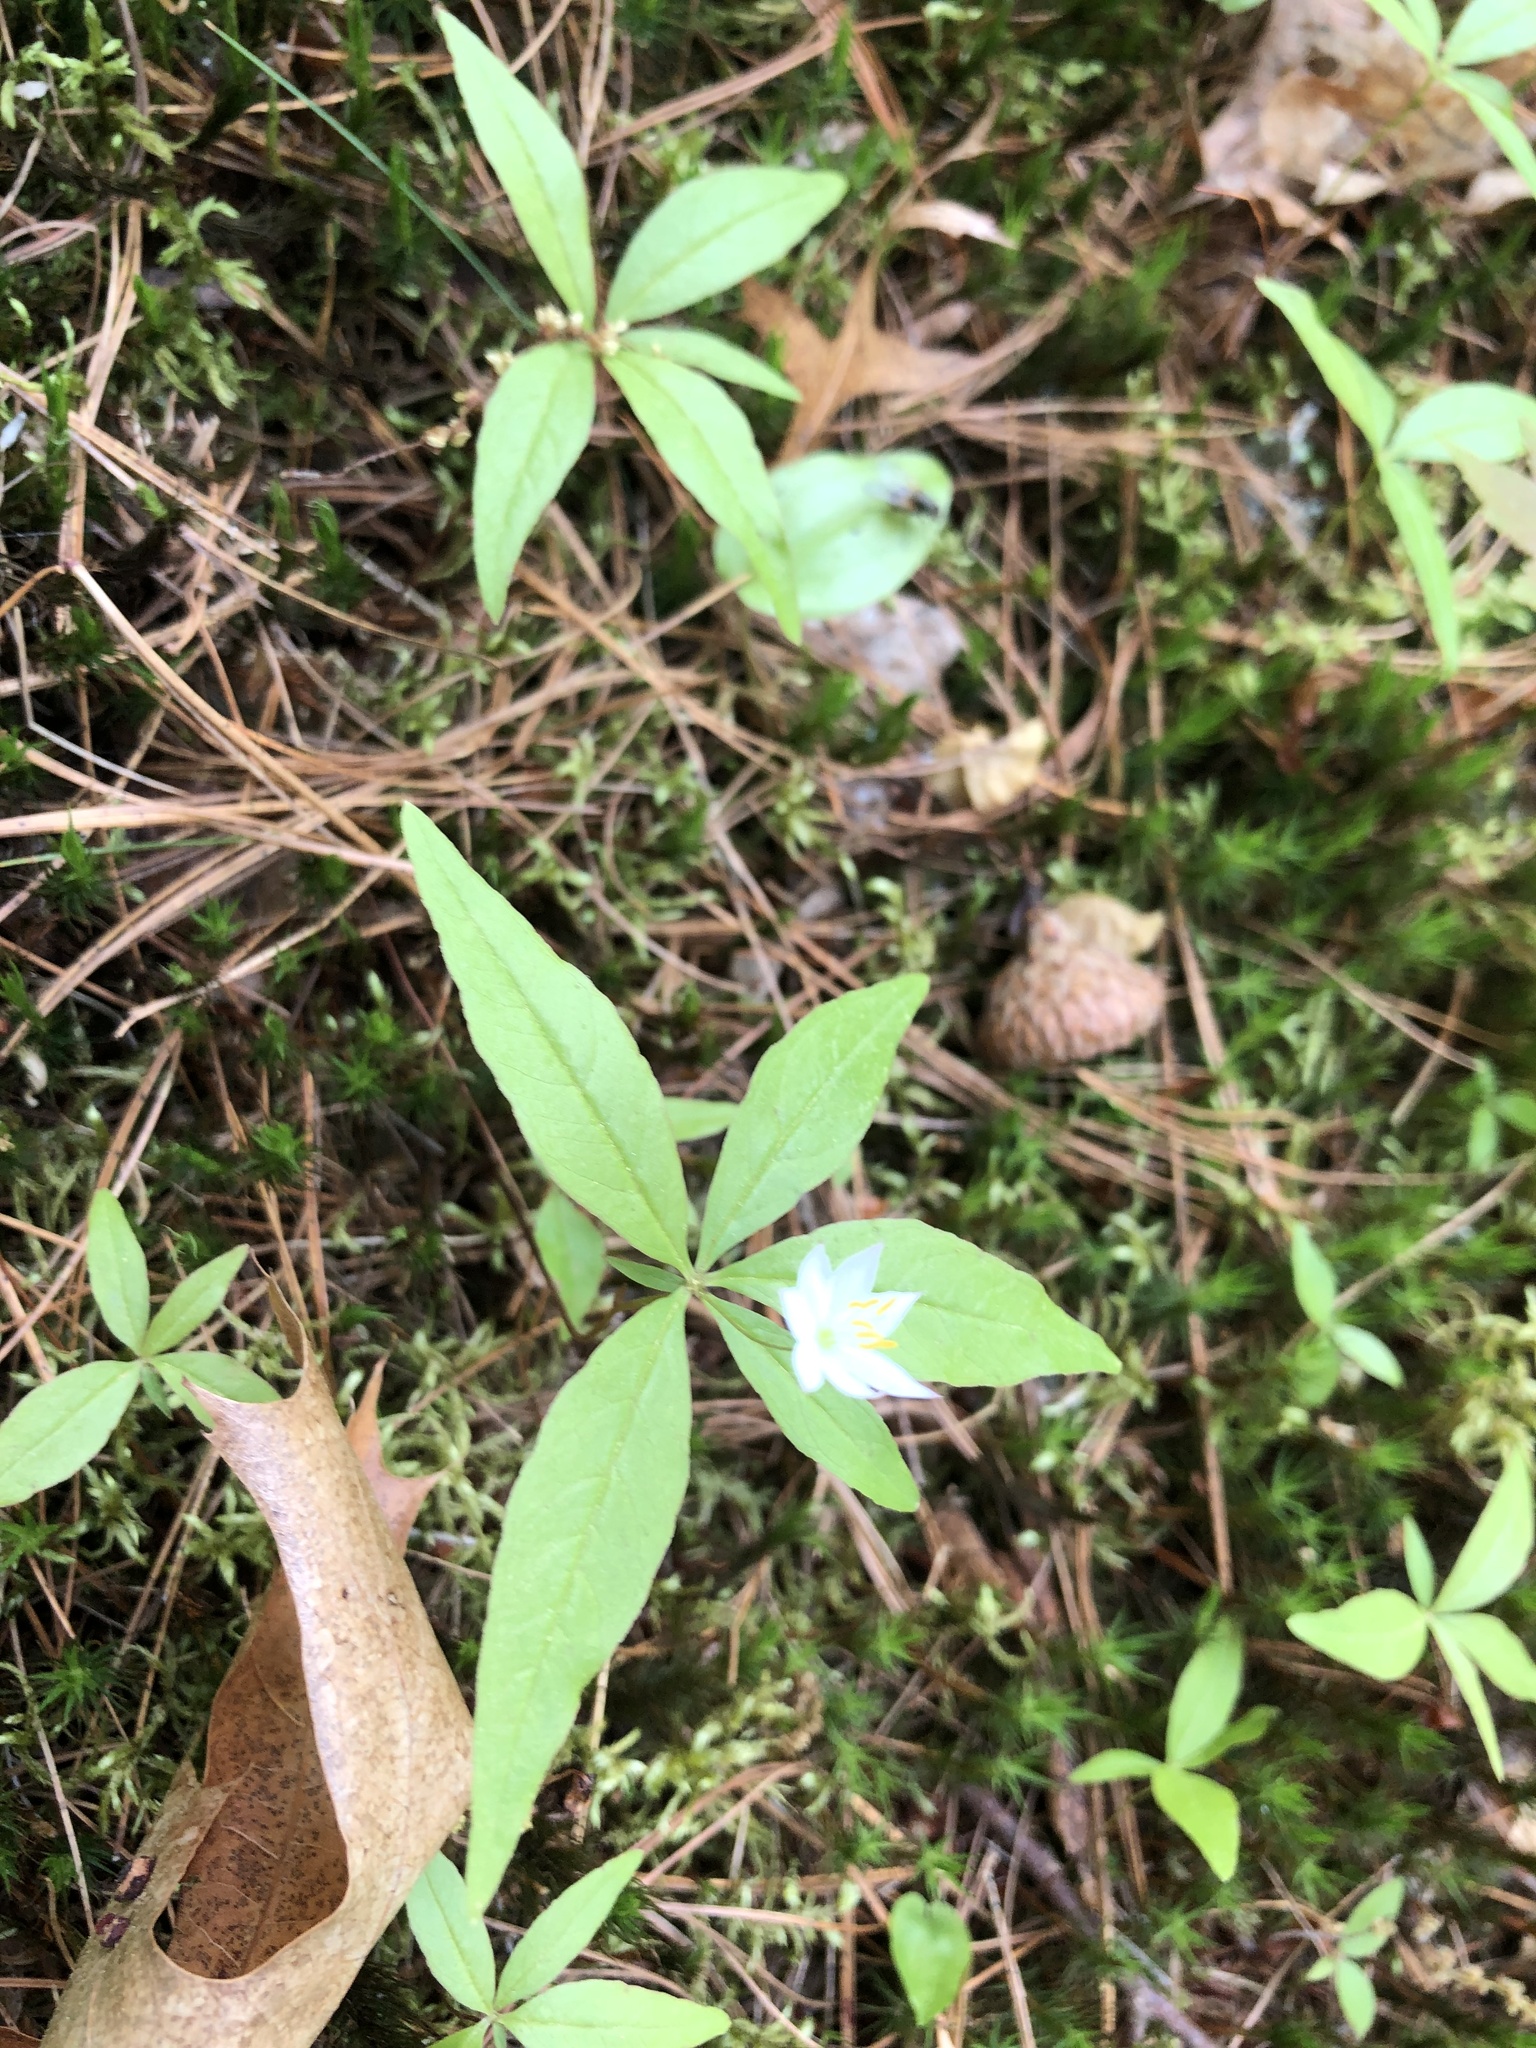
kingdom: Plantae
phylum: Tracheophyta
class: Magnoliopsida
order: Ericales
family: Primulaceae
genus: Lysimachia
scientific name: Lysimachia borealis
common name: American starflower
